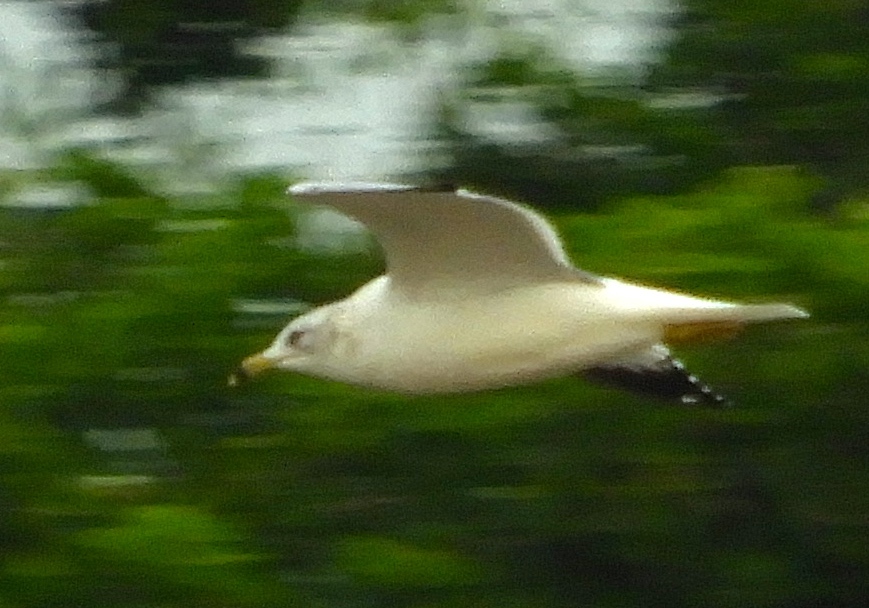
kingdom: Animalia
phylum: Chordata
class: Aves
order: Charadriiformes
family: Laridae
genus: Larus
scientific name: Larus delawarensis
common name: Ring-billed gull
